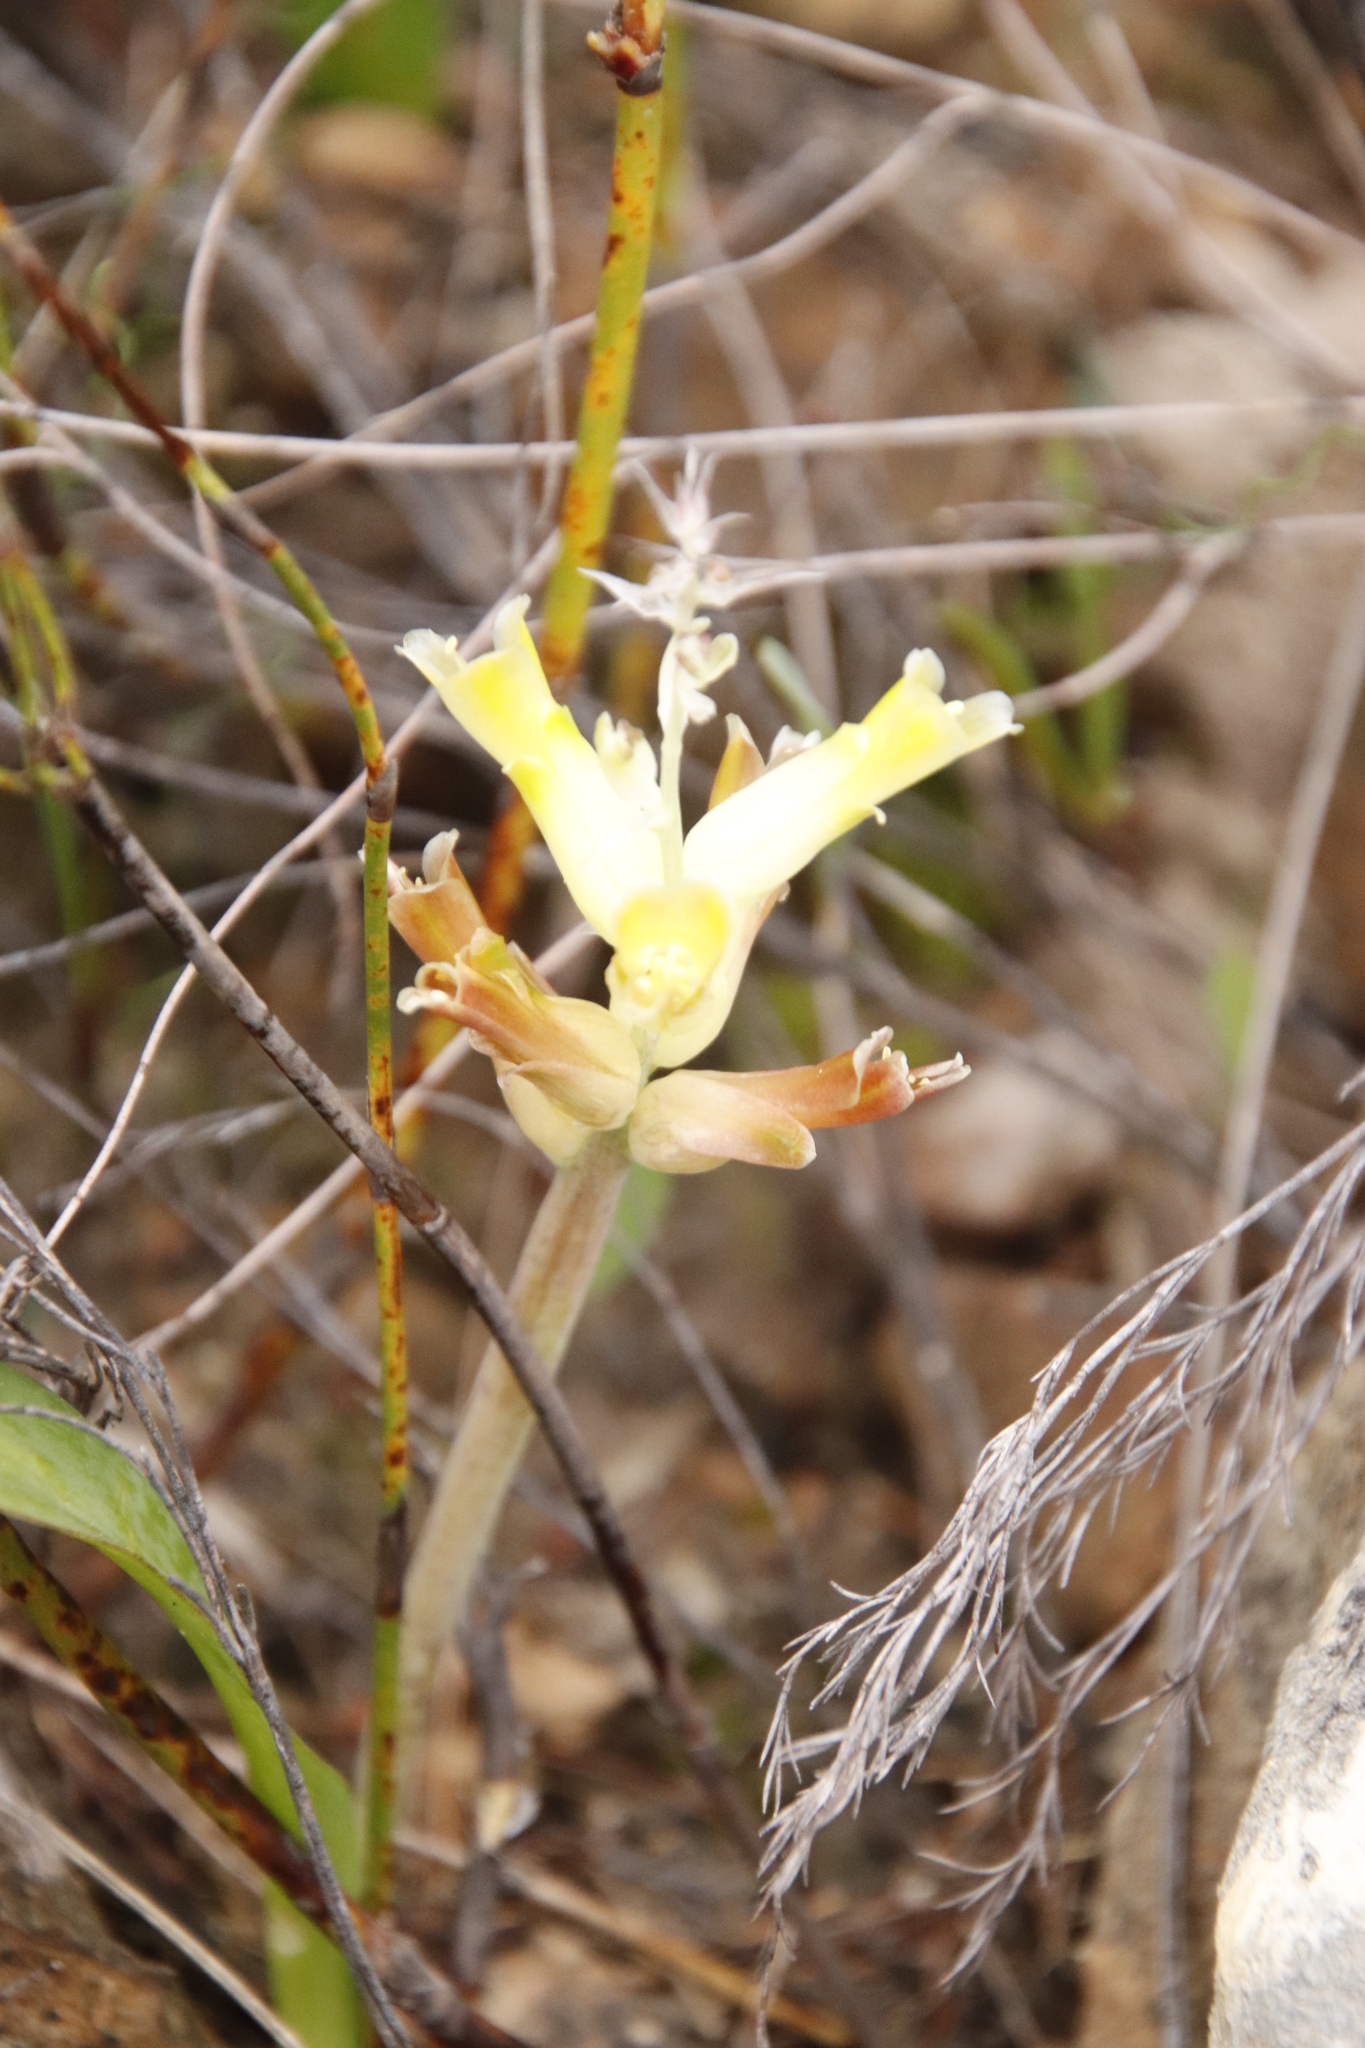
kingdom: Plantae
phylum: Tracheophyta
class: Liliopsida
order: Asparagales
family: Asparagaceae
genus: Lachenalia
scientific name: Lachenalia orchioides
